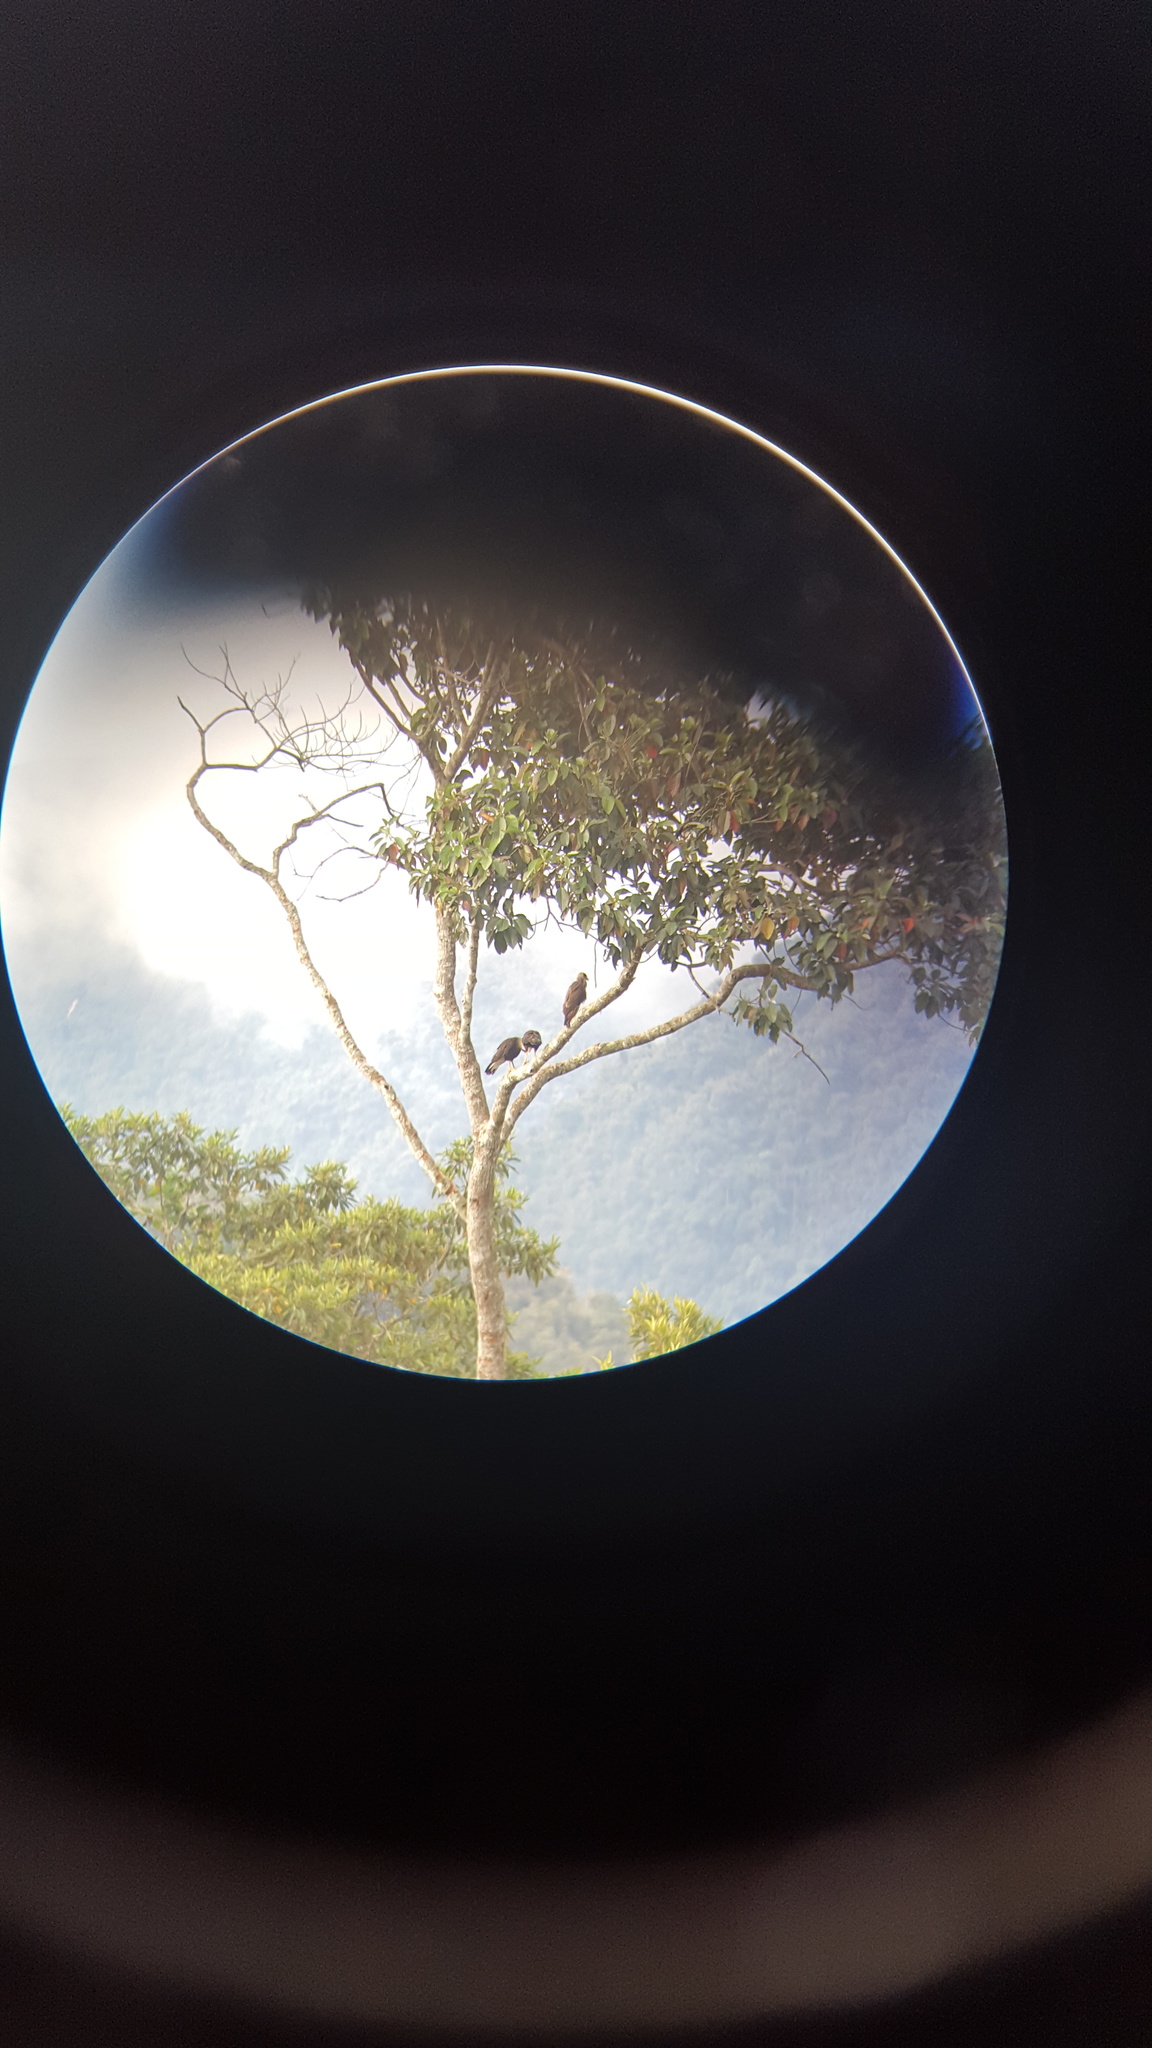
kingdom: Animalia
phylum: Chordata
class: Aves
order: Falconiformes
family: Falconidae
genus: Caracara
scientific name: Caracara plancus
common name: Southern caracara
